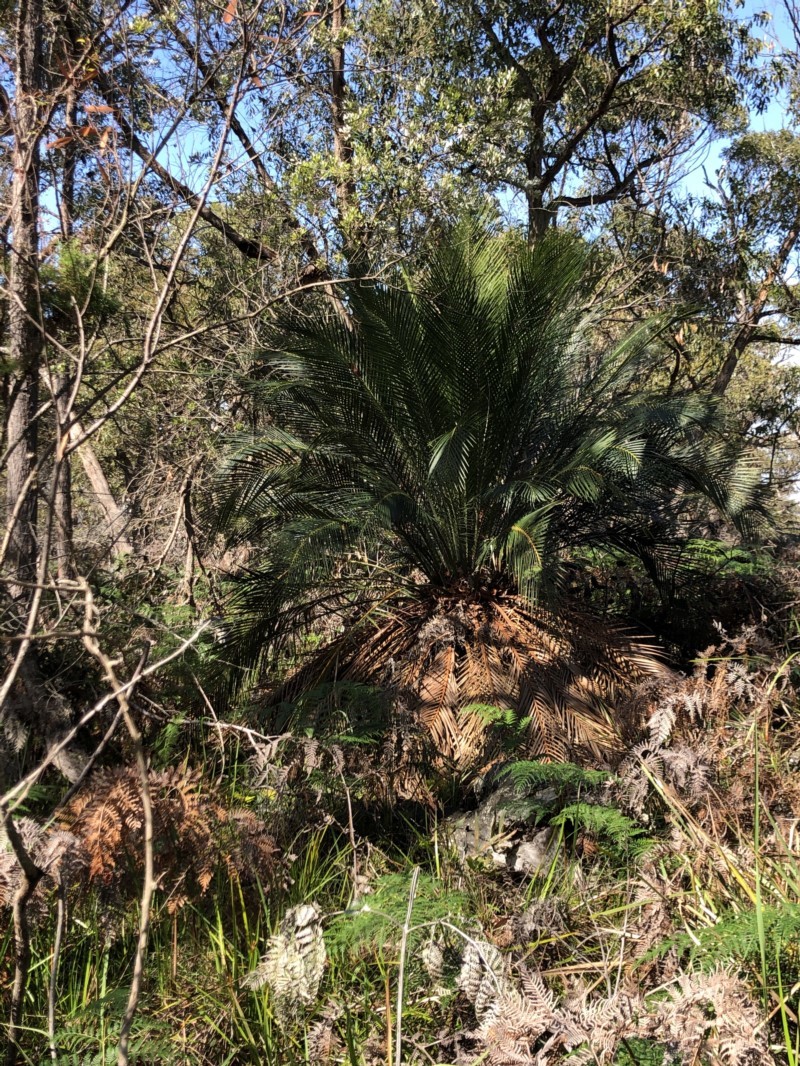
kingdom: Plantae
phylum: Tracheophyta
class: Cycadopsida
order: Cycadales
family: Zamiaceae
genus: Macrozamia
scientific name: Macrozamia communis
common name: Burrawong
